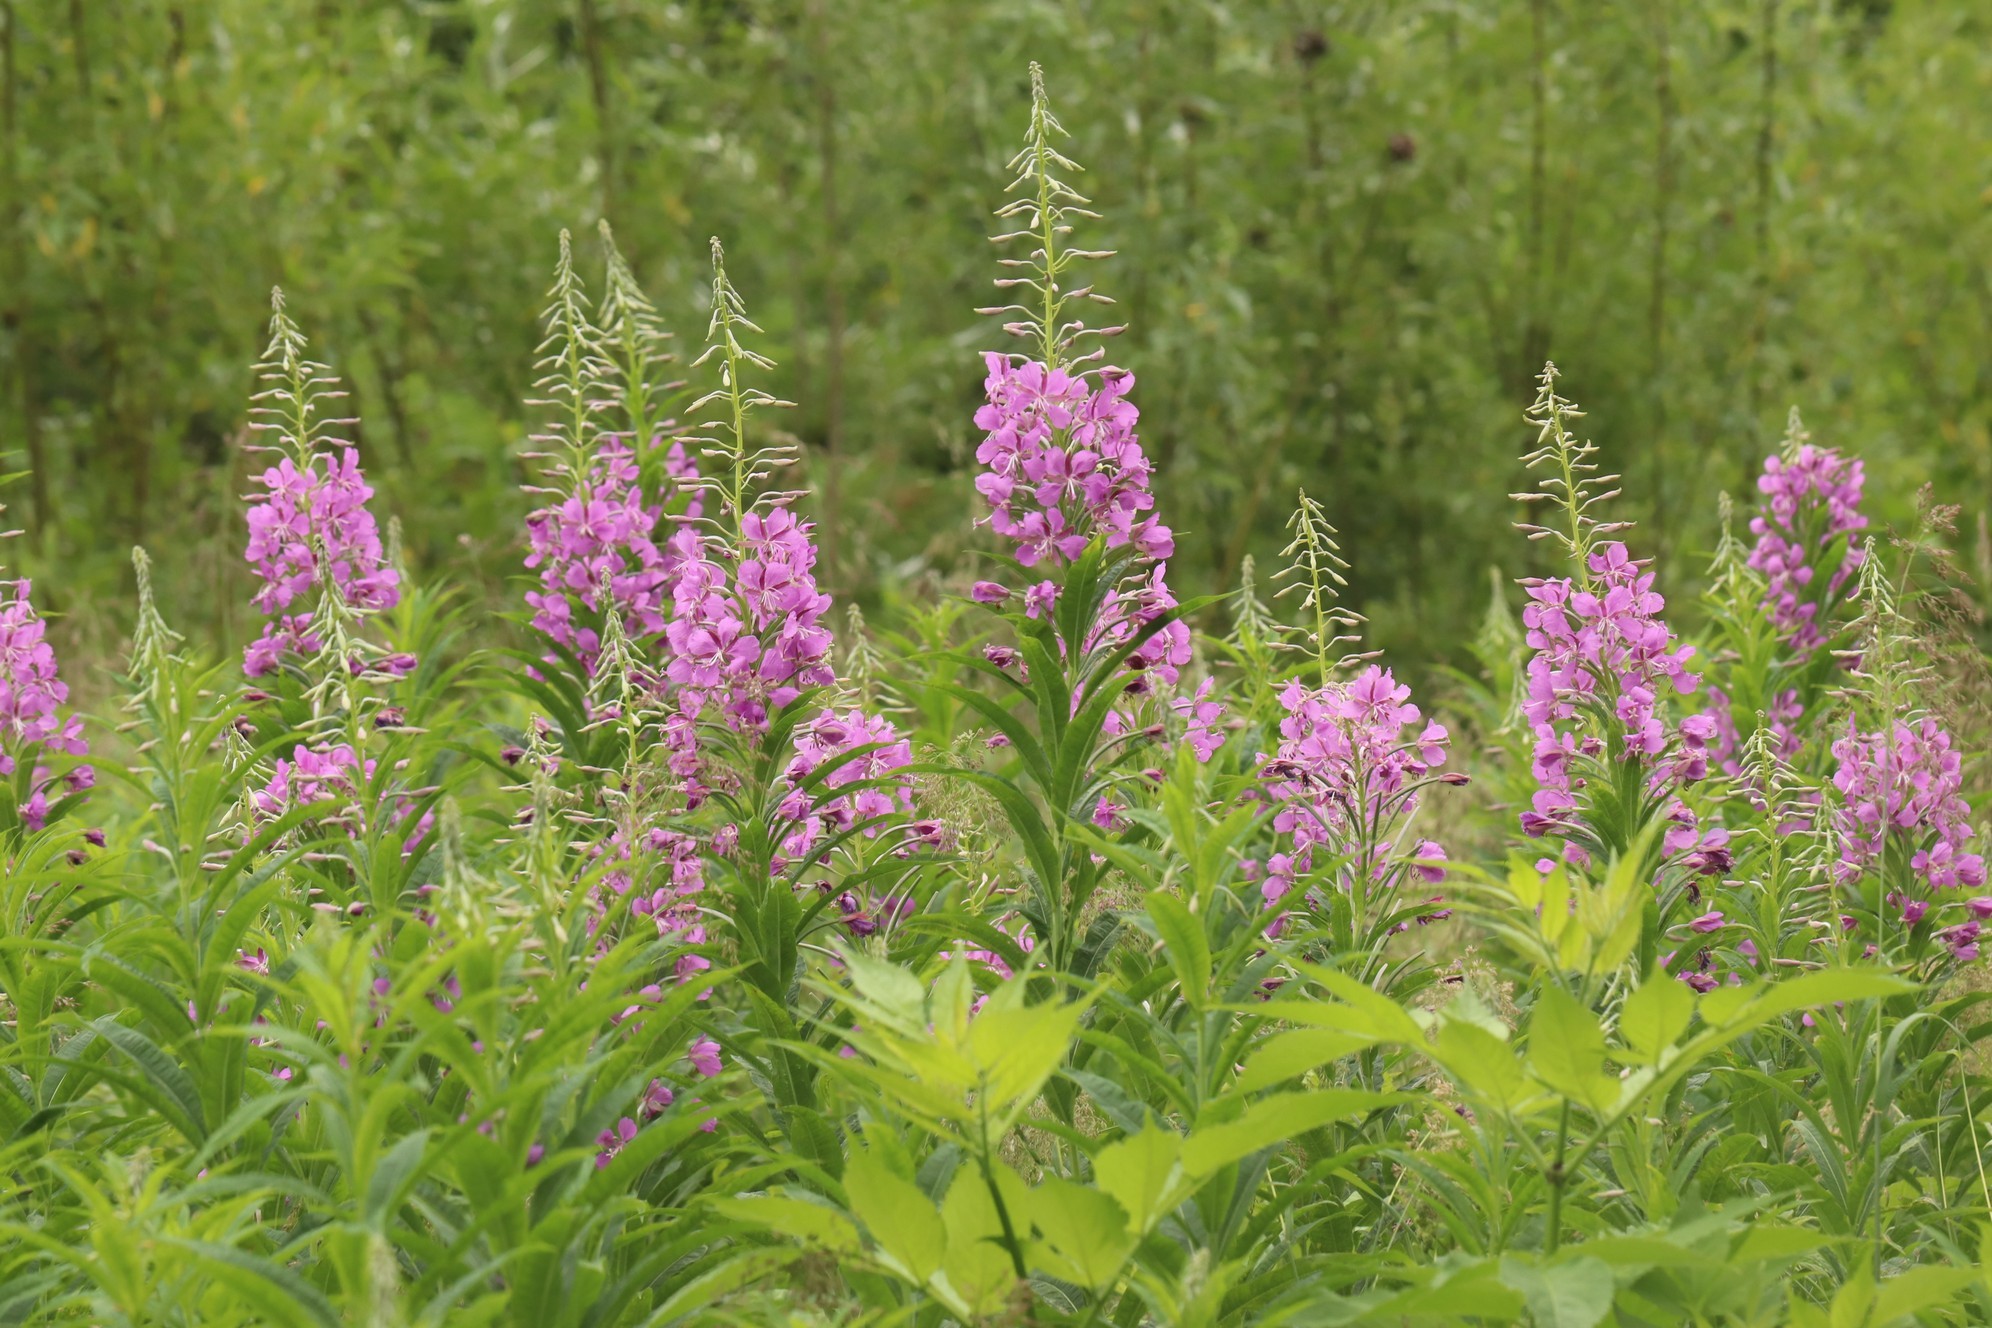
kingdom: Plantae
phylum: Tracheophyta
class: Magnoliopsida
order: Myrtales
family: Onagraceae
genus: Chamaenerion
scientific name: Chamaenerion angustifolium
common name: Fireweed
